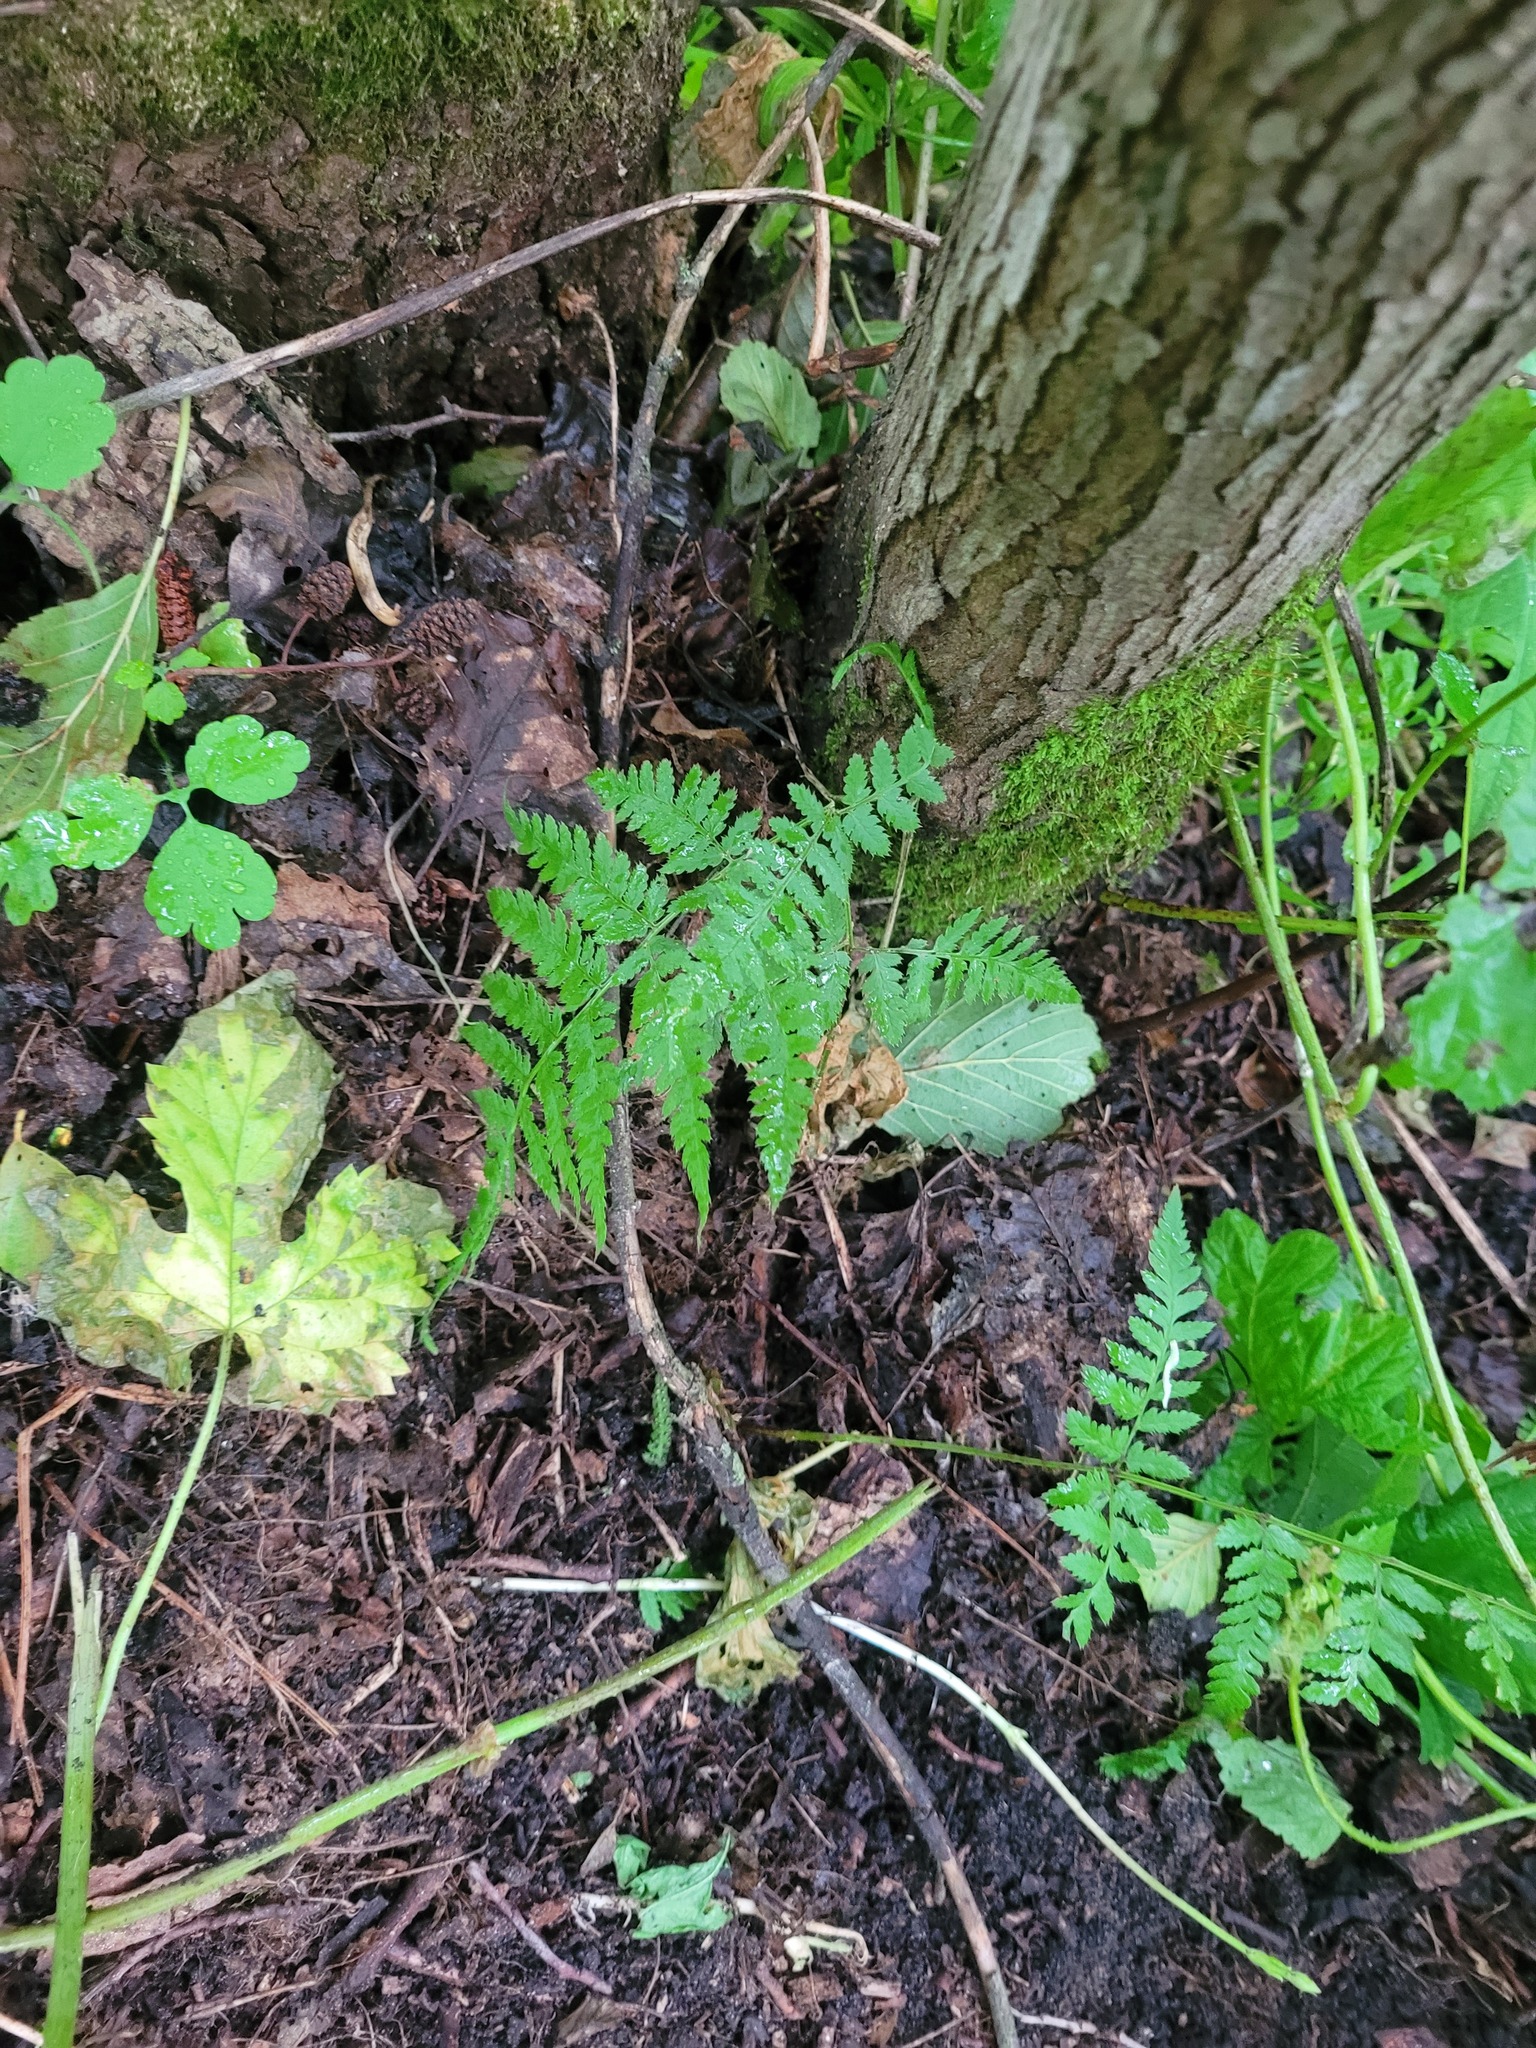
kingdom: Plantae
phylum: Tracheophyta
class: Polypodiopsida
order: Polypodiales
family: Dryopteridaceae
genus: Dryopteris
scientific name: Dryopteris carthusiana
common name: Narrow buckler-fern
